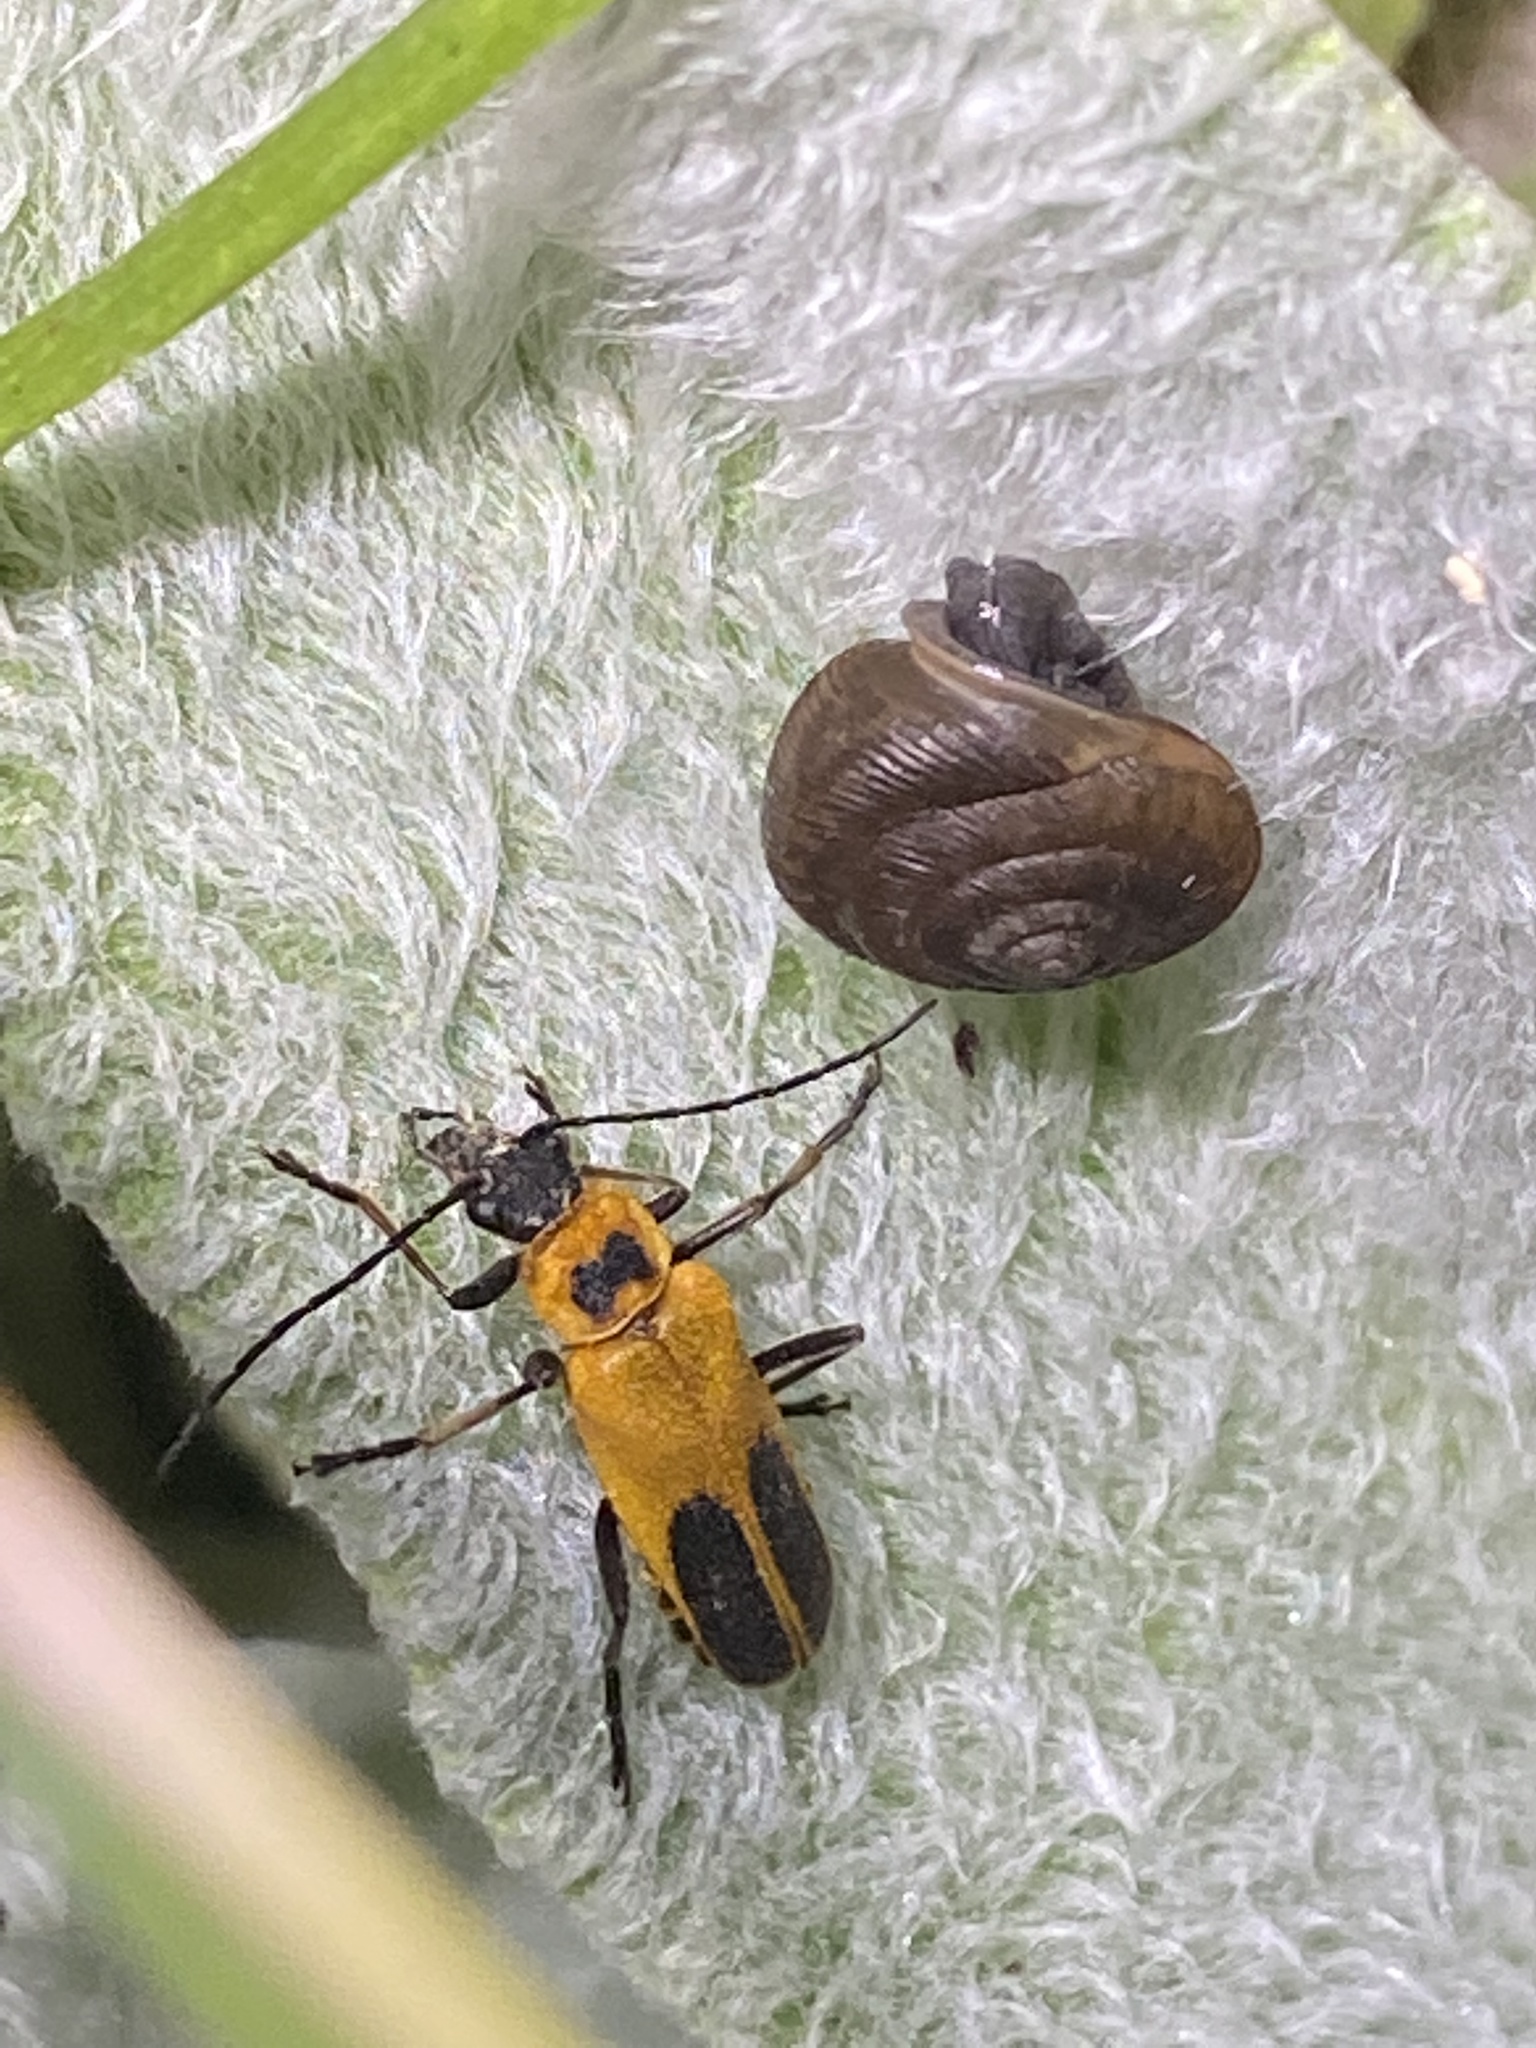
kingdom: Animalia
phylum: Arthropoda
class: Insecta
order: Coleoptera
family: Cantharidae
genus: Chauliognathus
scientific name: Chauliognathus pensylvanicus
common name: Goldenrod soldier beetle
